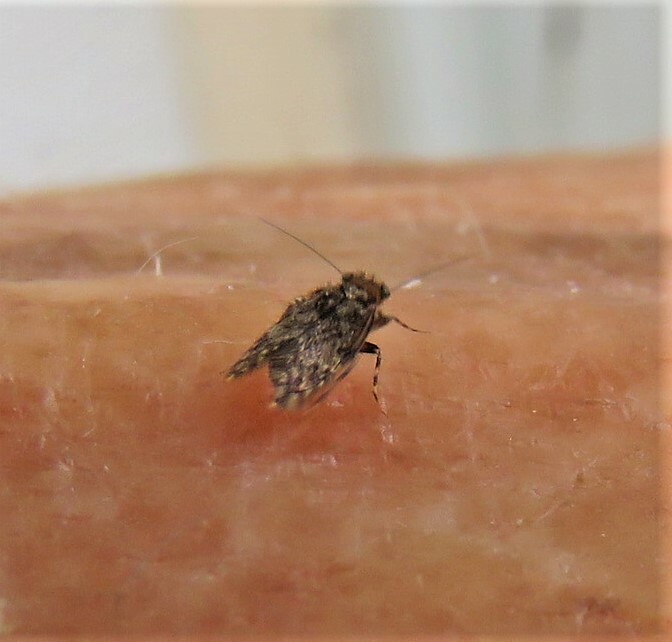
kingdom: Animalia
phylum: Arthropoda
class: Insecta
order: Psocodea
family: Lepidopsocidae
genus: Echmepteryx
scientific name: Echmepteryx hageni
